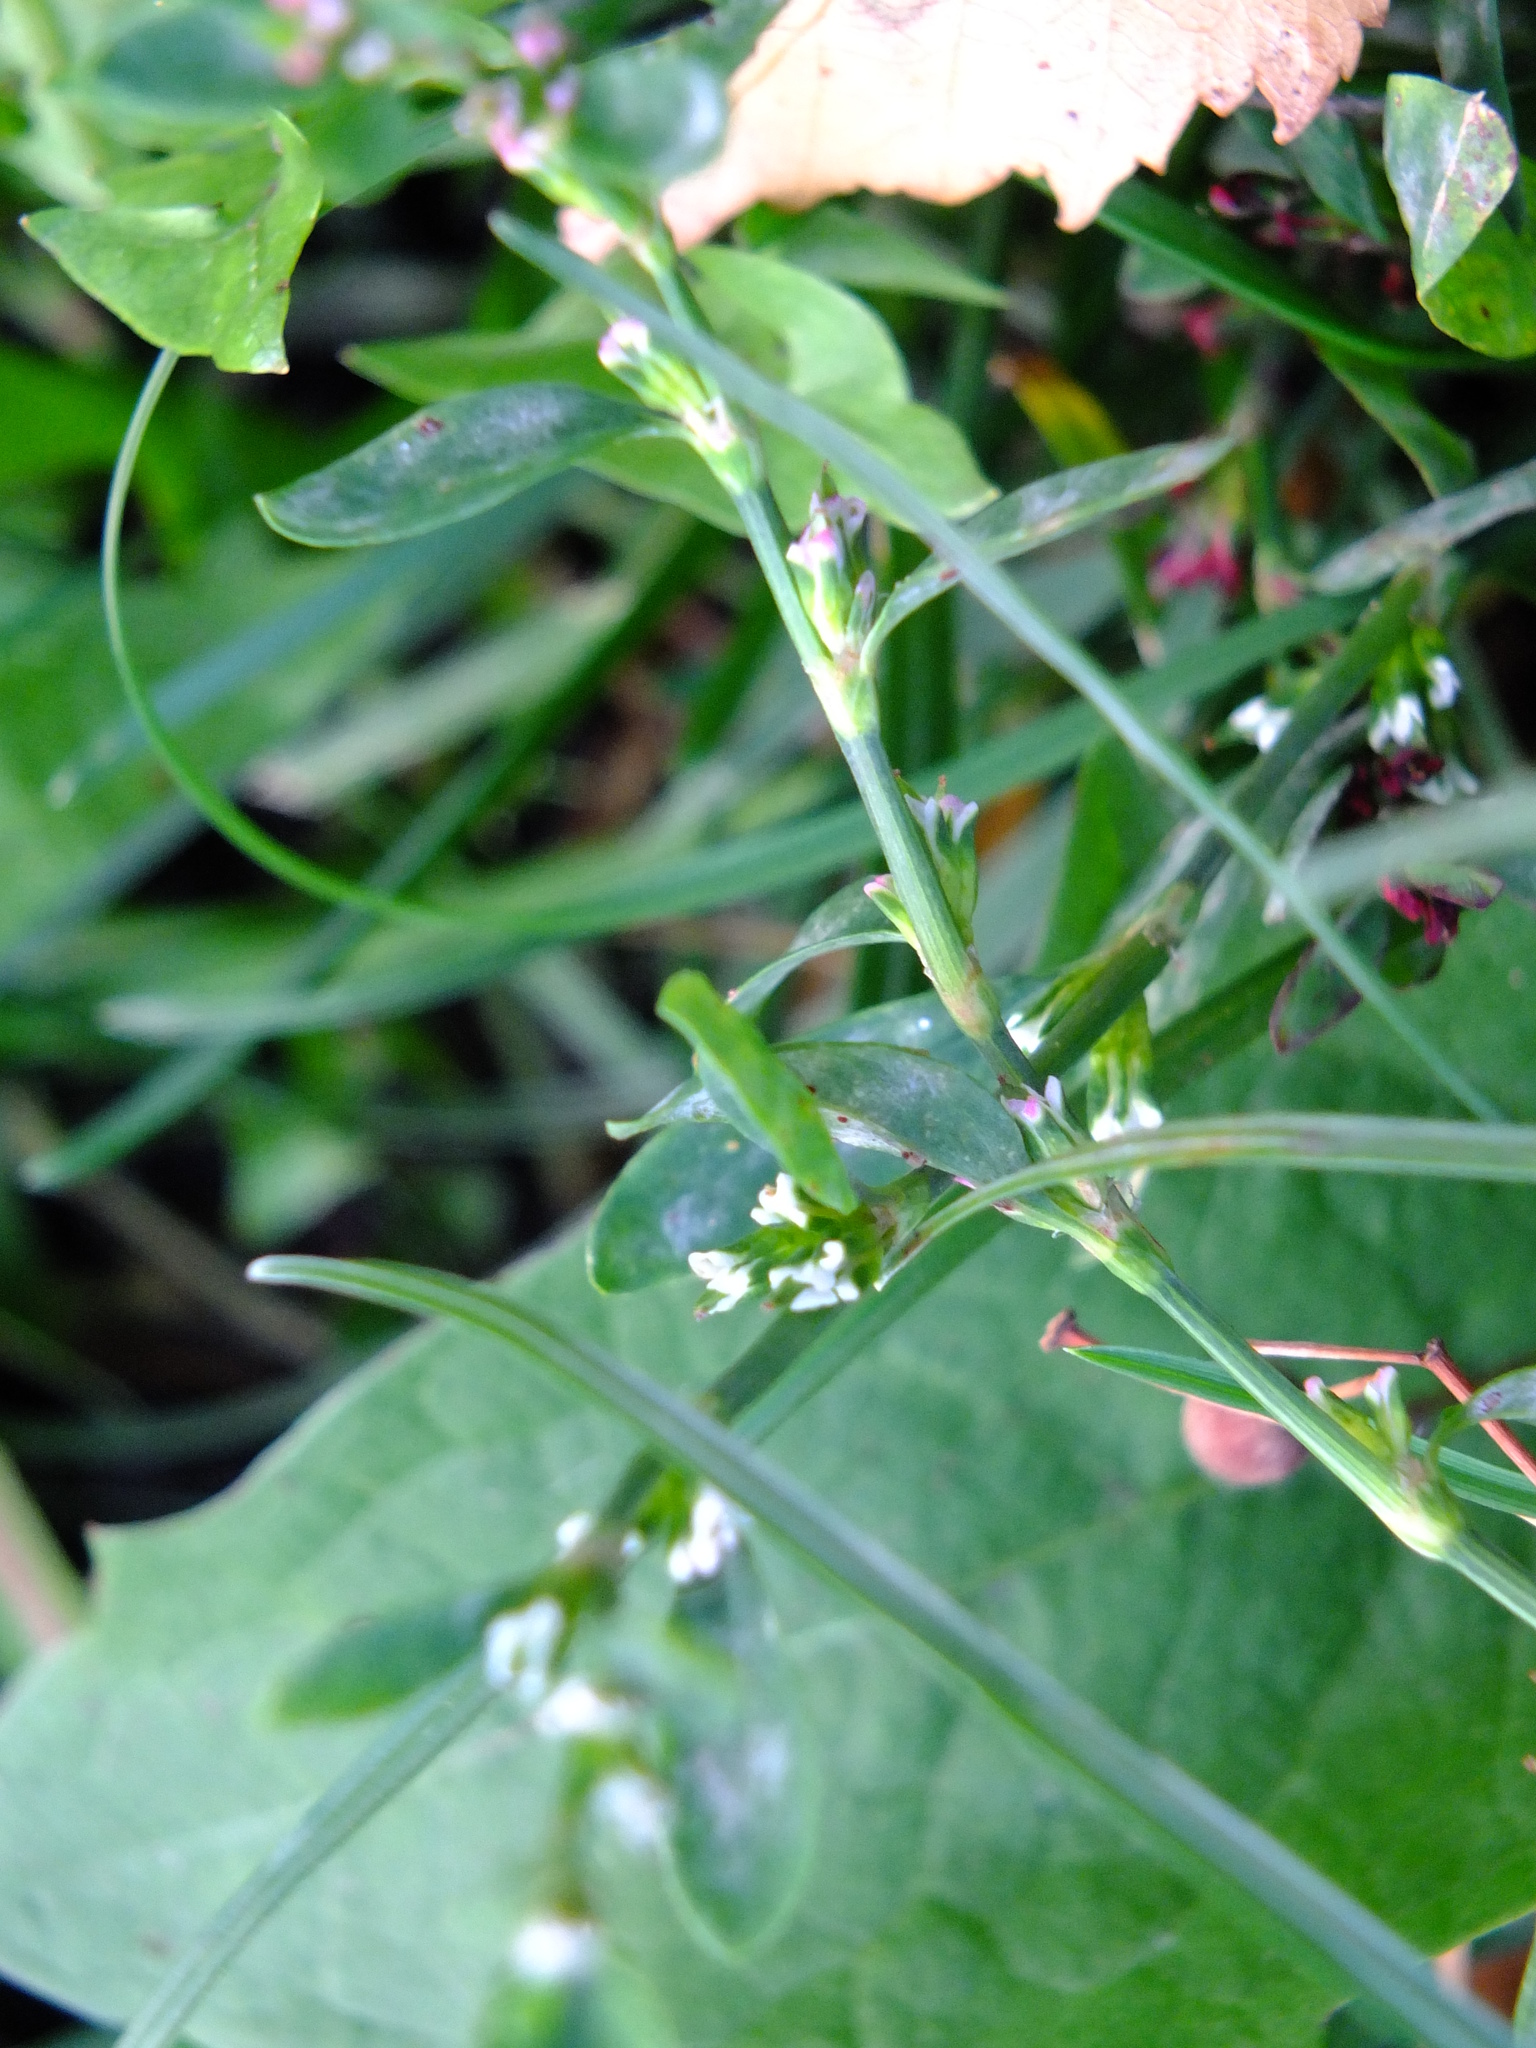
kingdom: Plantae
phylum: Tracheophyta
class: Magnoliopsida
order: Caryophyllales
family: Polygonaceae
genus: Polygonum
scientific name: Polygonum
